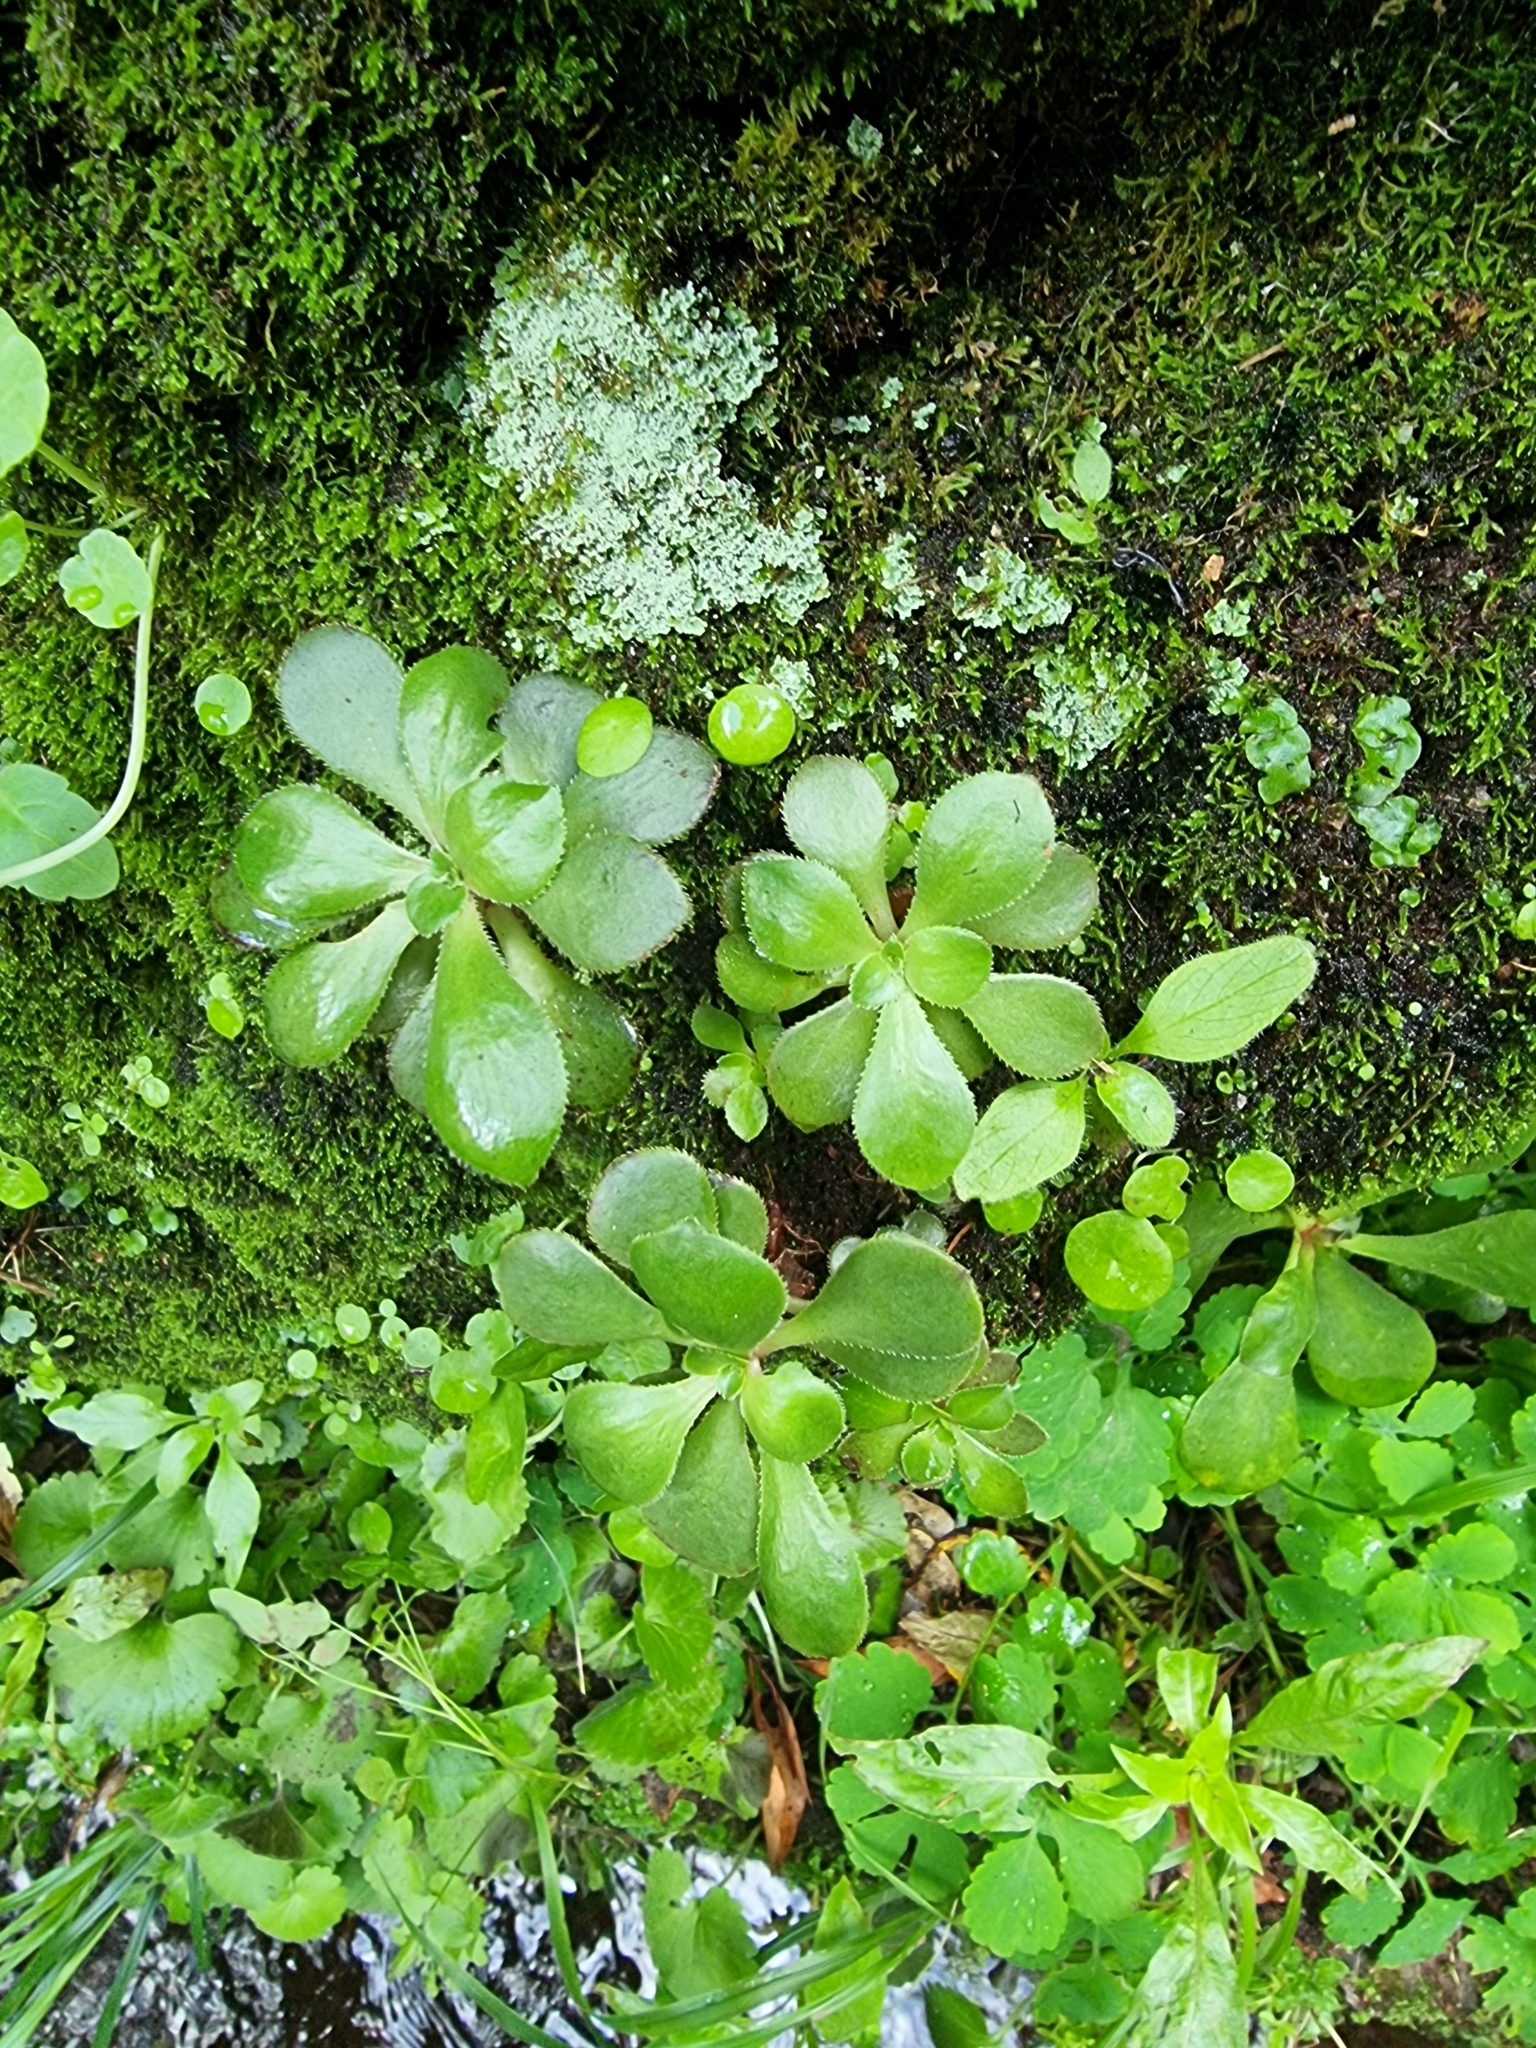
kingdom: Plantae
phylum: Tracheophyta
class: Magnoliopsida
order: Saxifragales
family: Crassulaceae
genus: Aeonium
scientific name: Aeonium glutinosum
